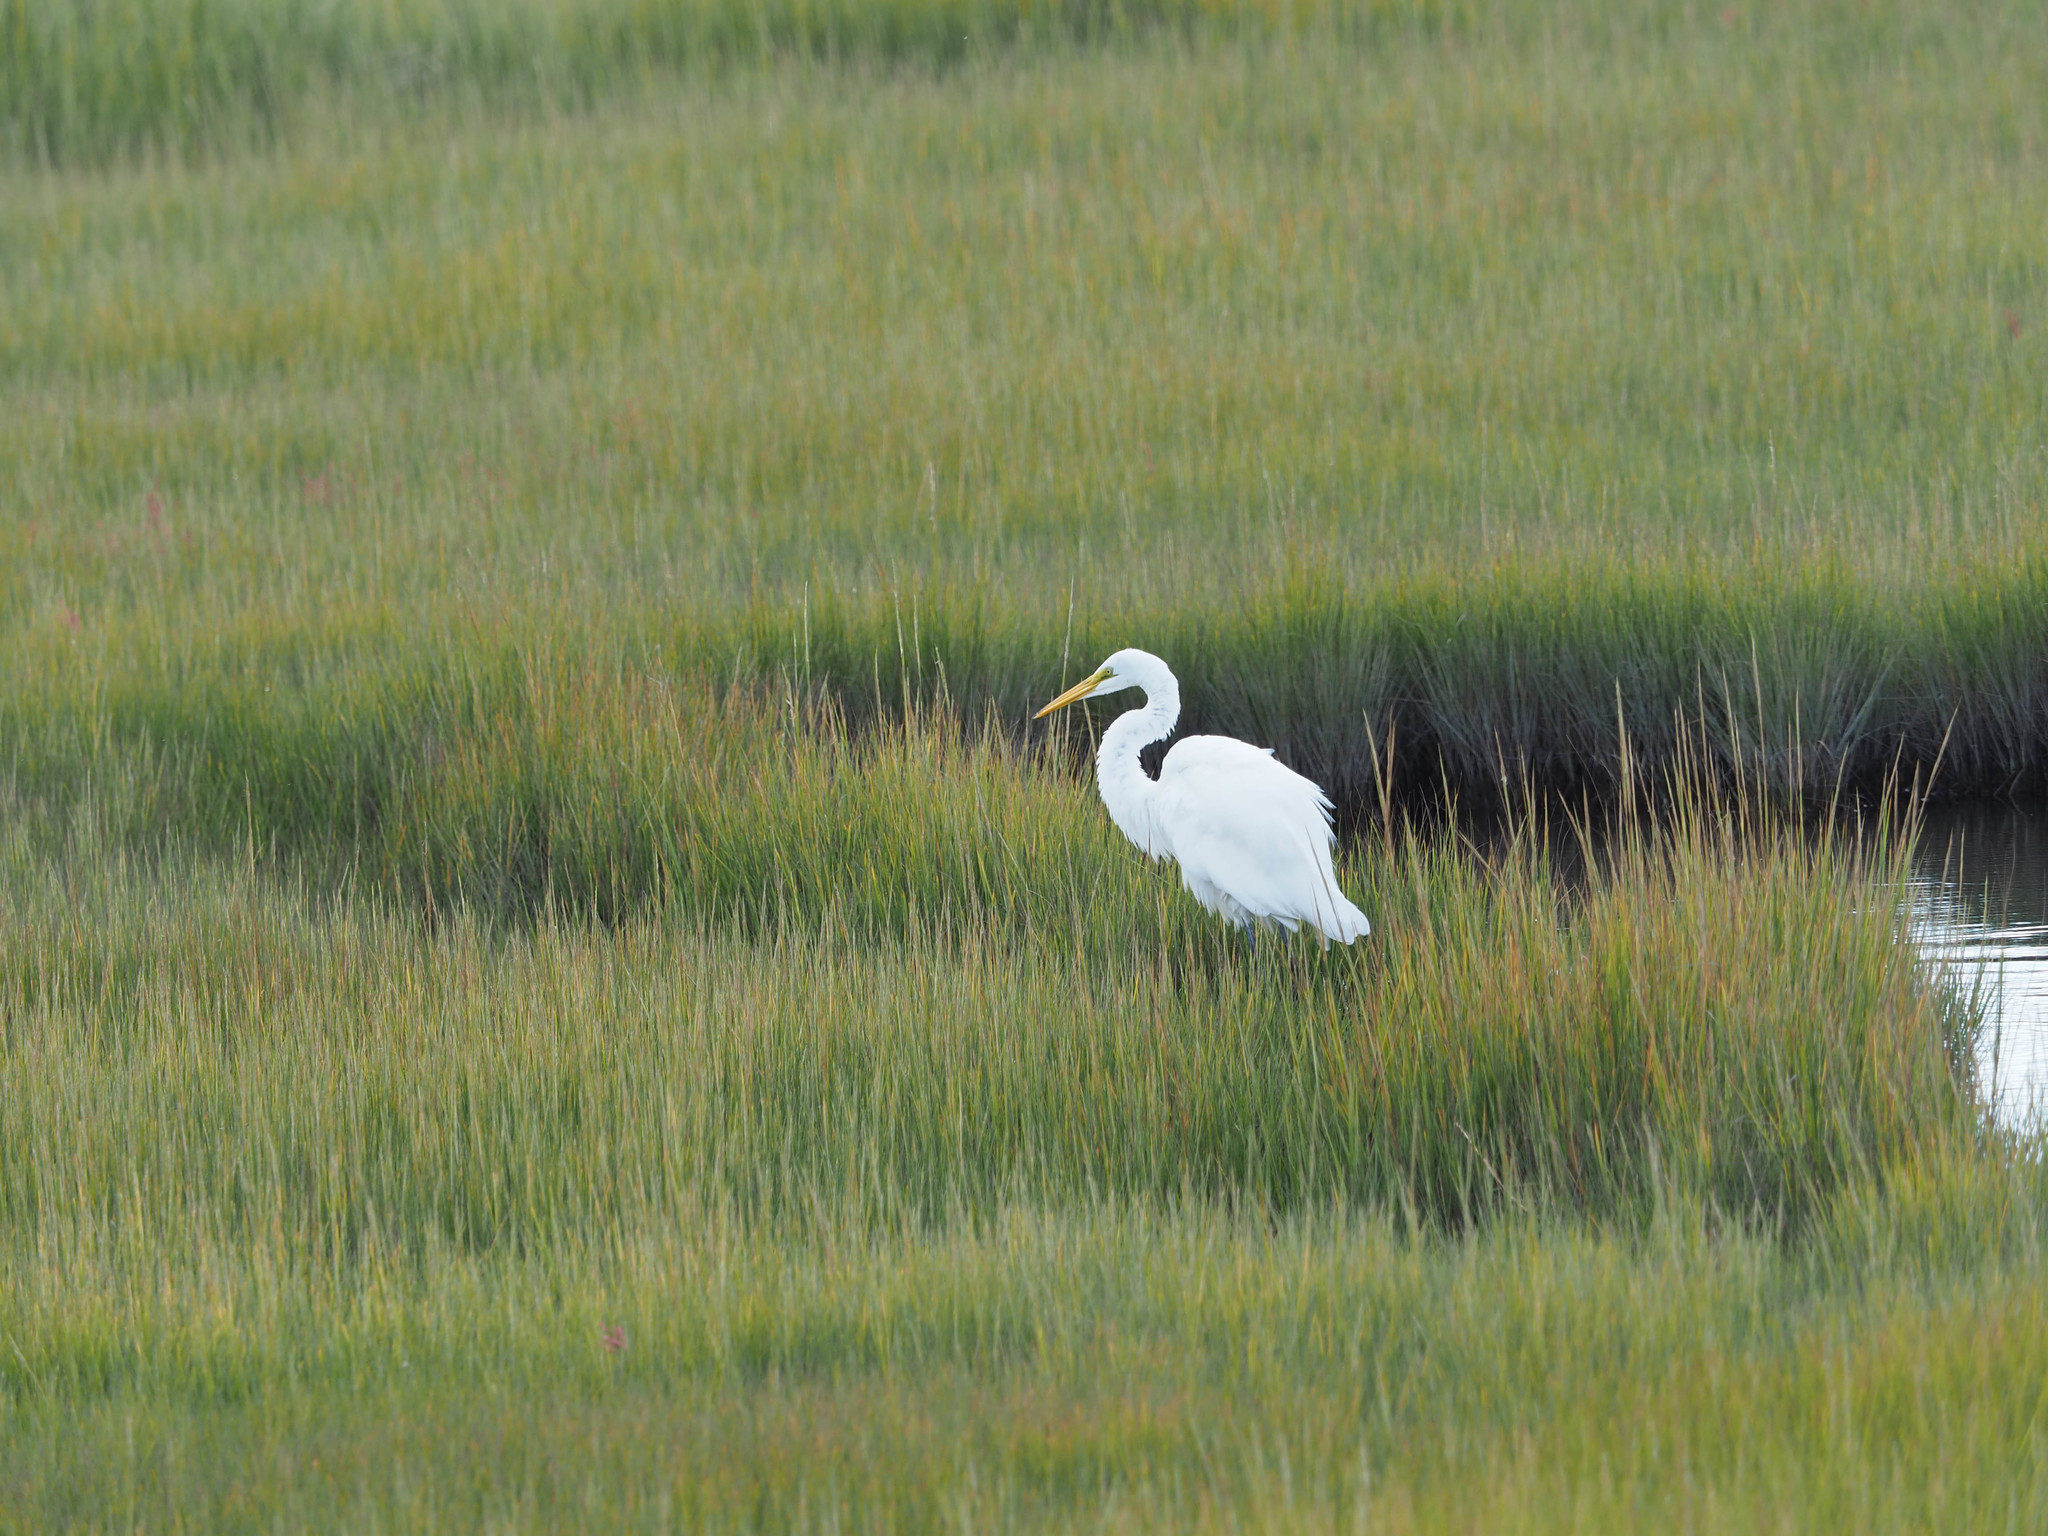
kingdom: Animalia
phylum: Chordata
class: Aves
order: Pelecaniformes
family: Ardeidae
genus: Ardea
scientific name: Ardea alba
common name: Great egret
